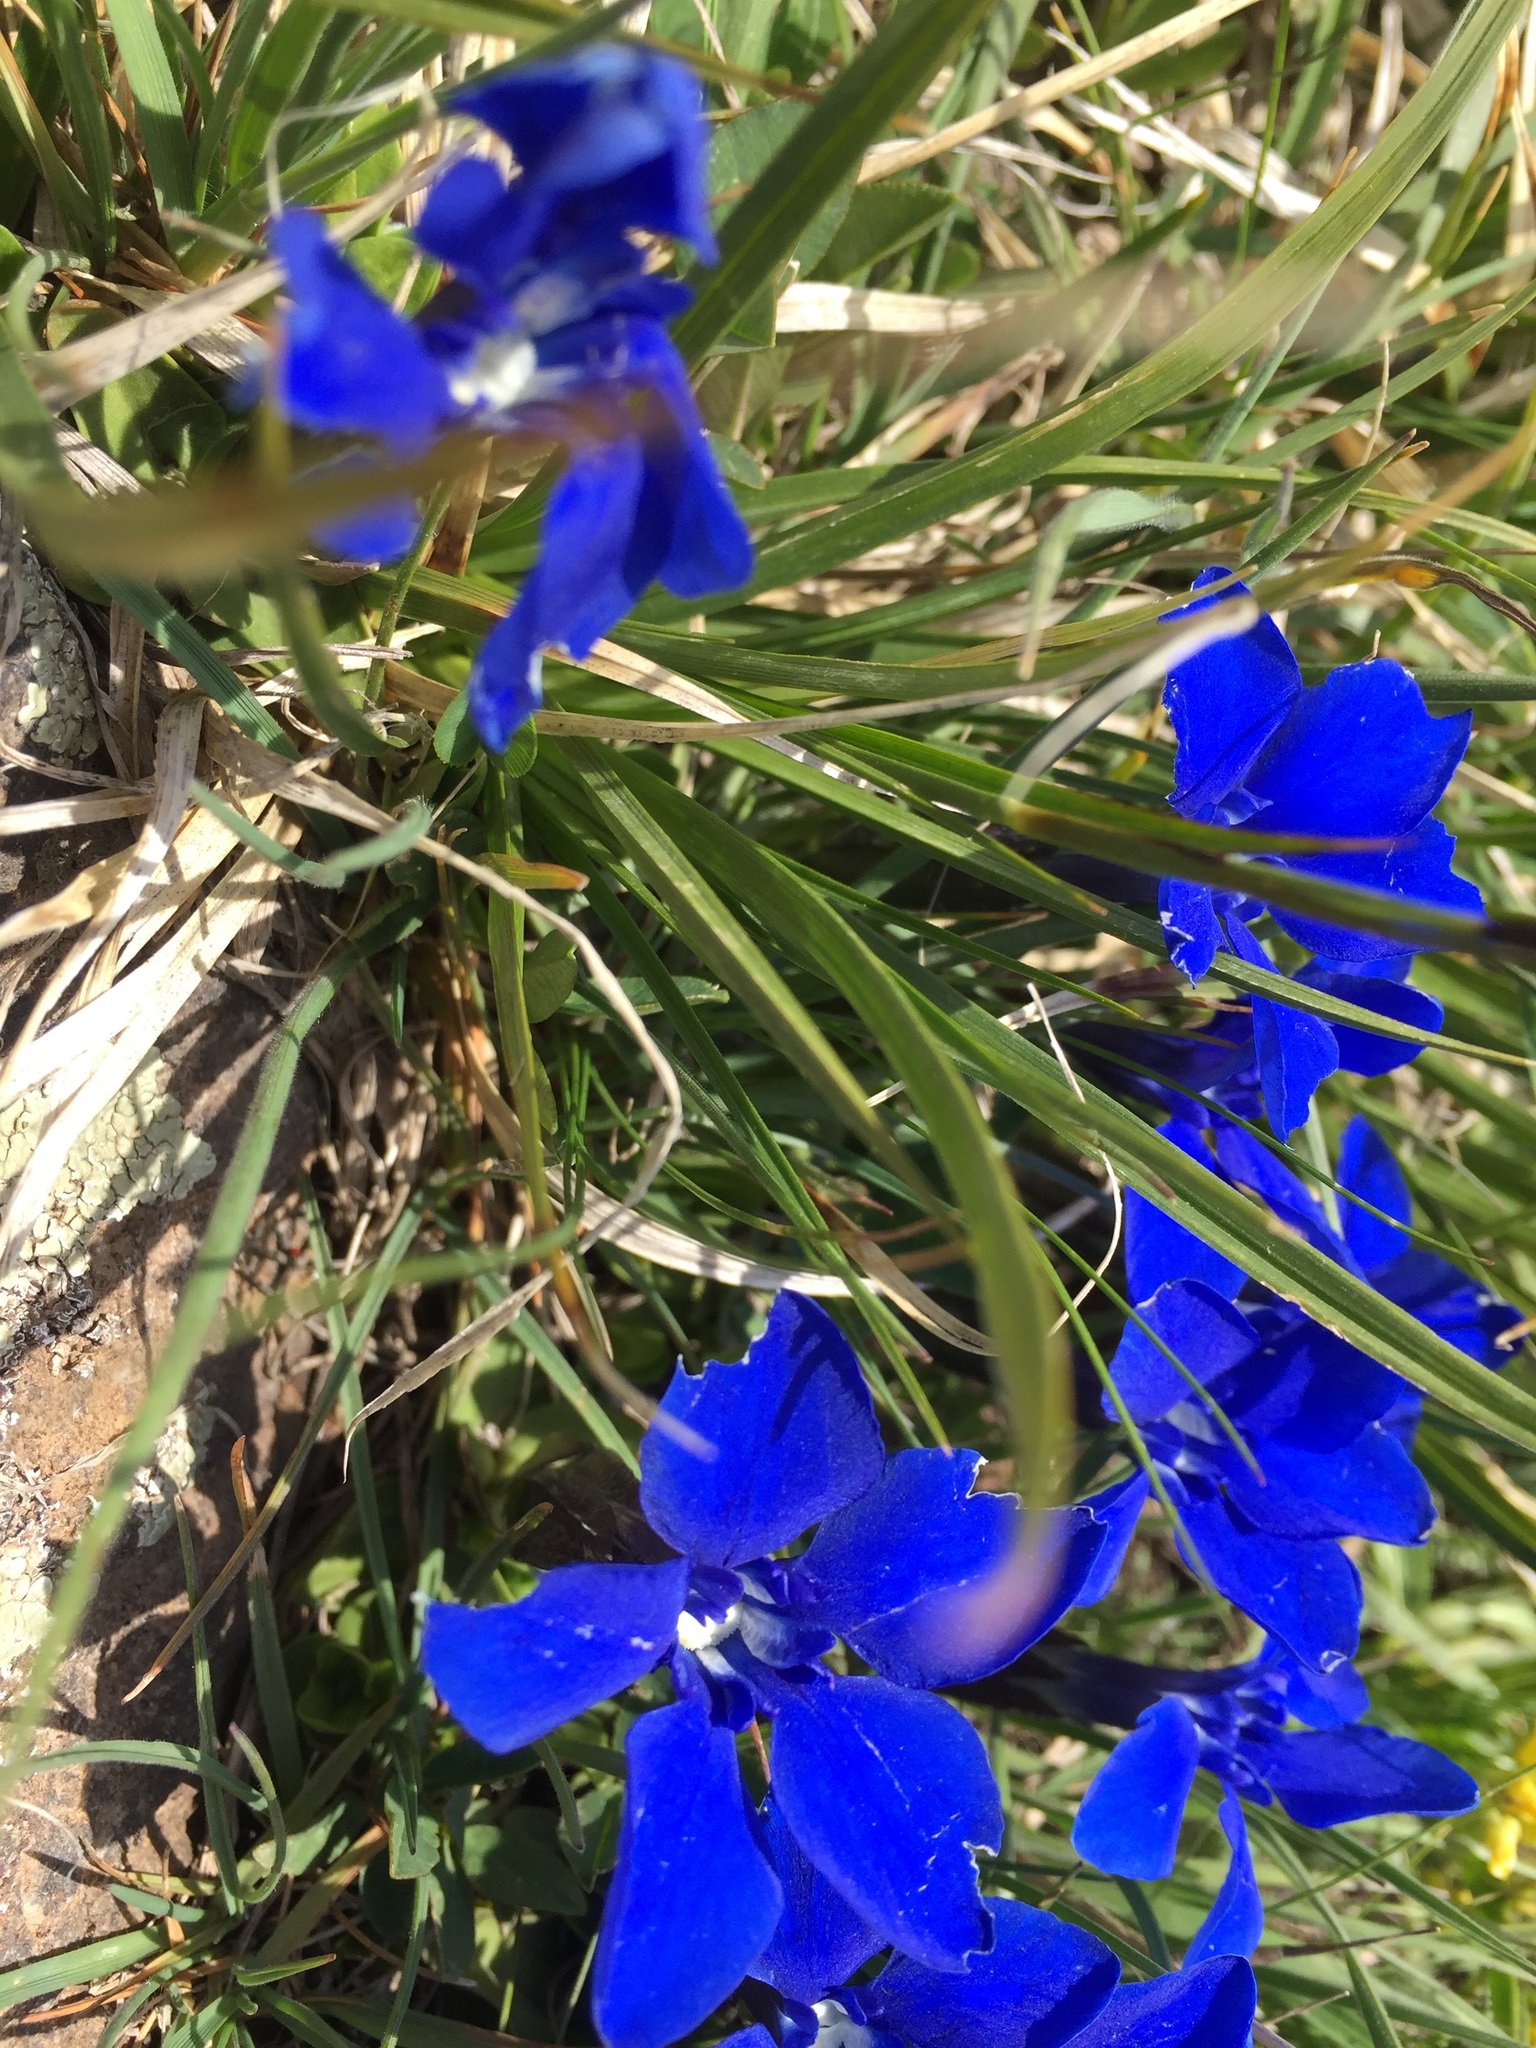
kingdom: Plantae
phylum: Tracheophyta
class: Magnoliopsida
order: Gentianales
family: Gentianaceae
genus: Gentiana
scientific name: Gentiana verna
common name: Spring gentian
